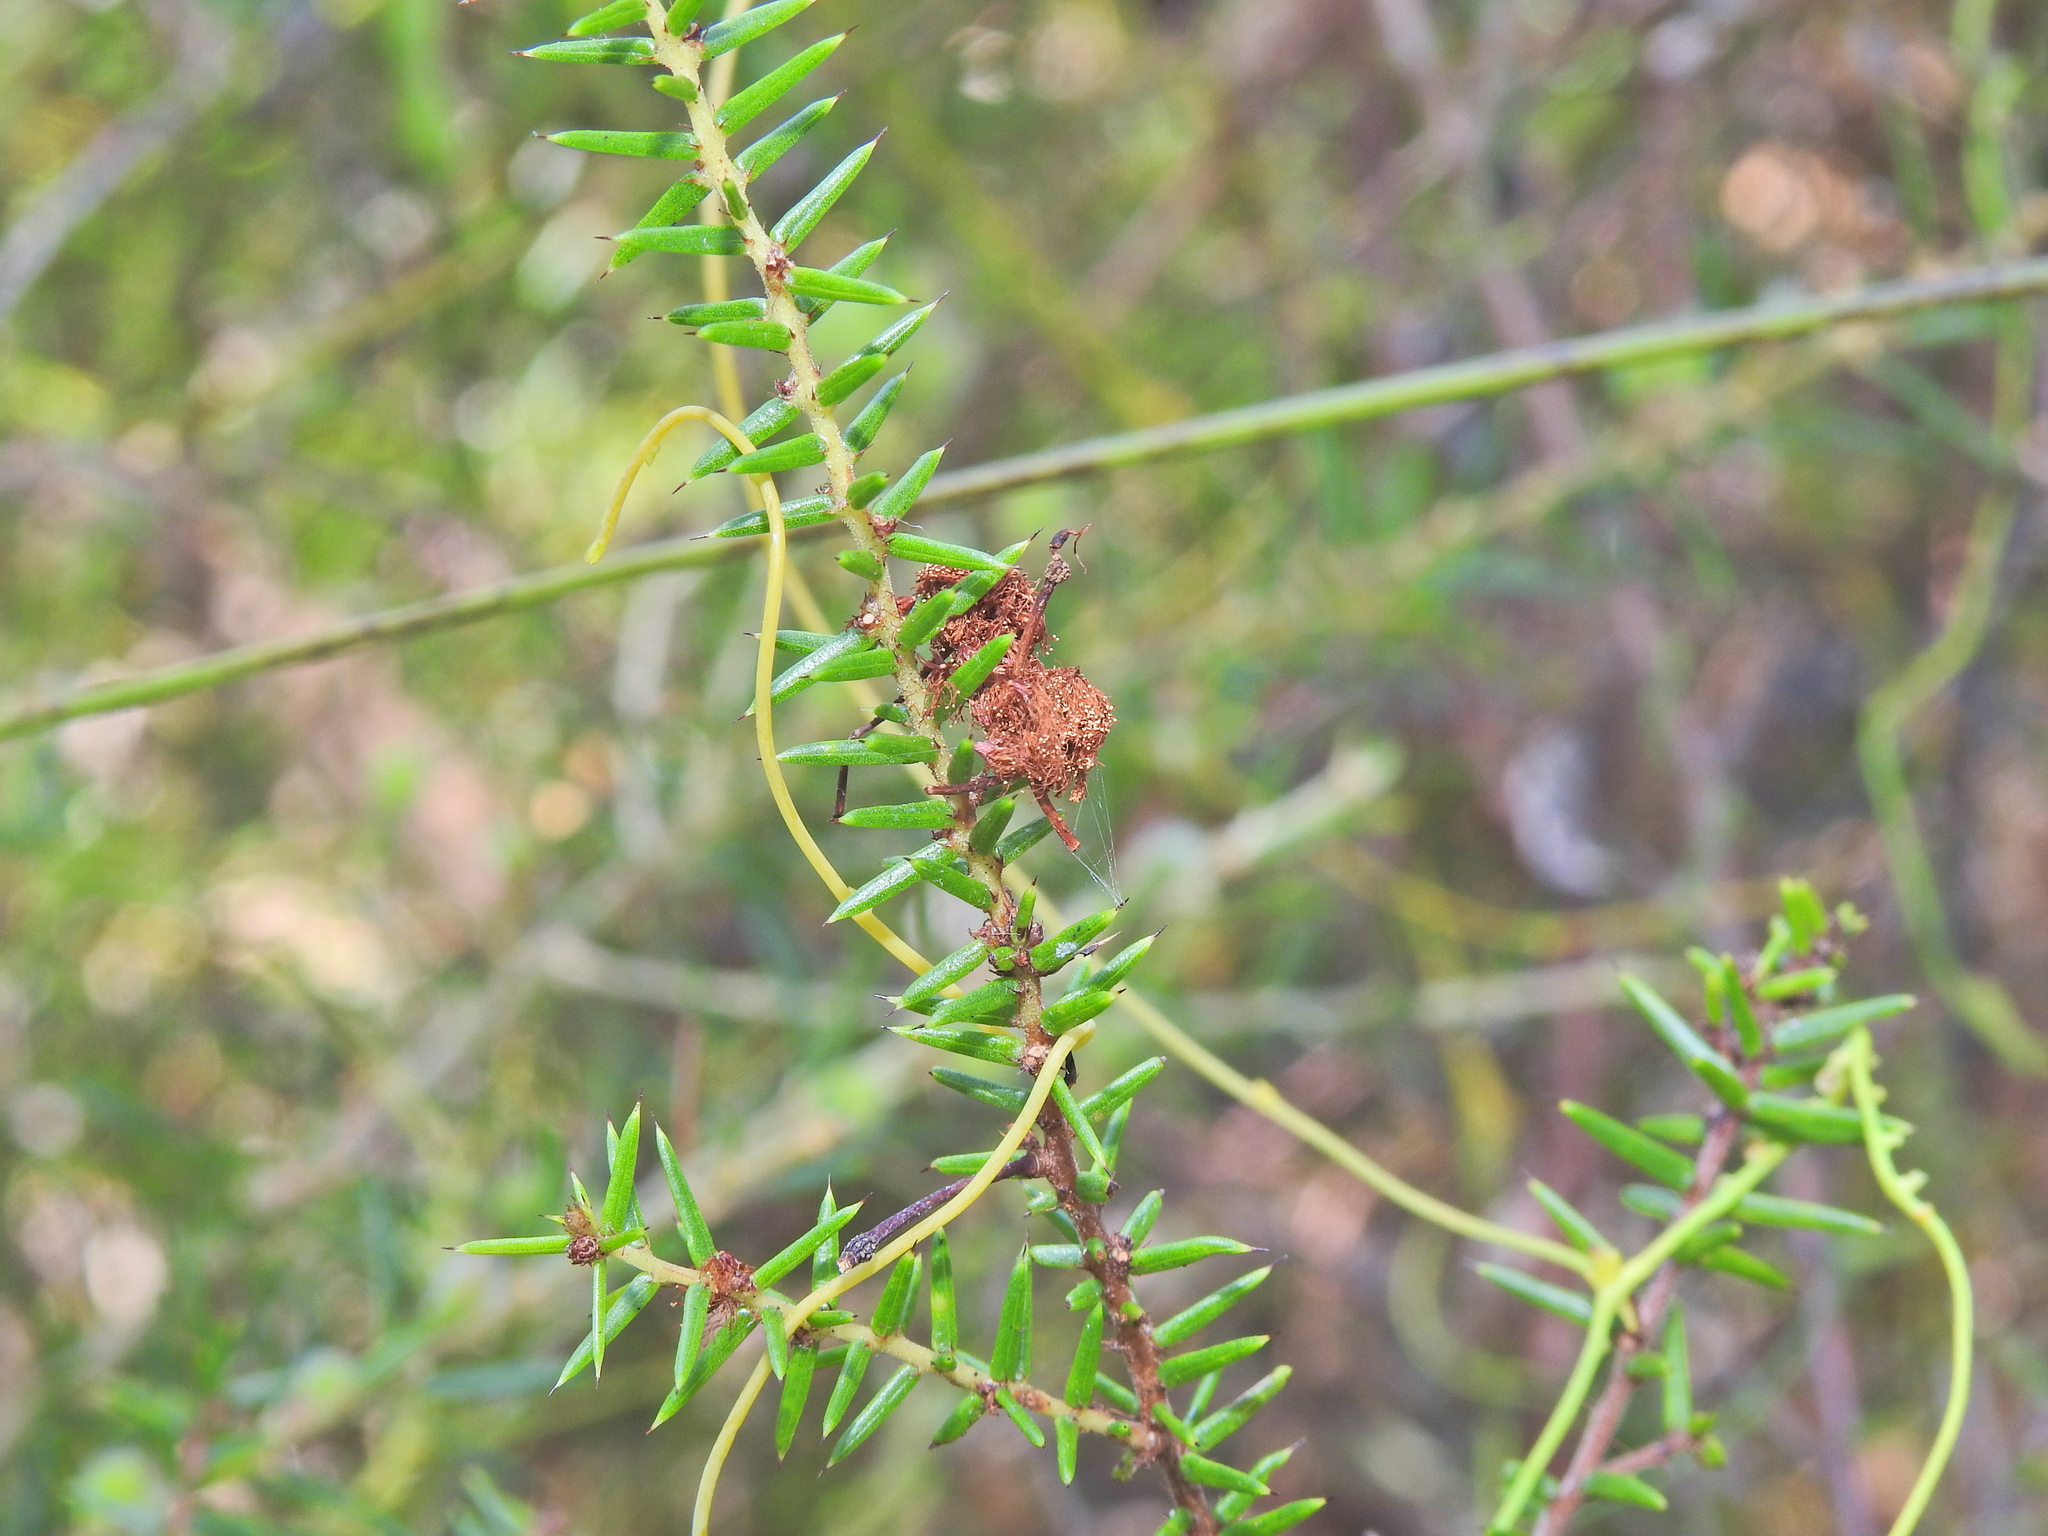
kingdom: Plantae
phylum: Tracheophyta
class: Magnoliopsida
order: Fabales
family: Fabaceae
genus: Acacia
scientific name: Acacia ulicifolia
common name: Juniper wattle
